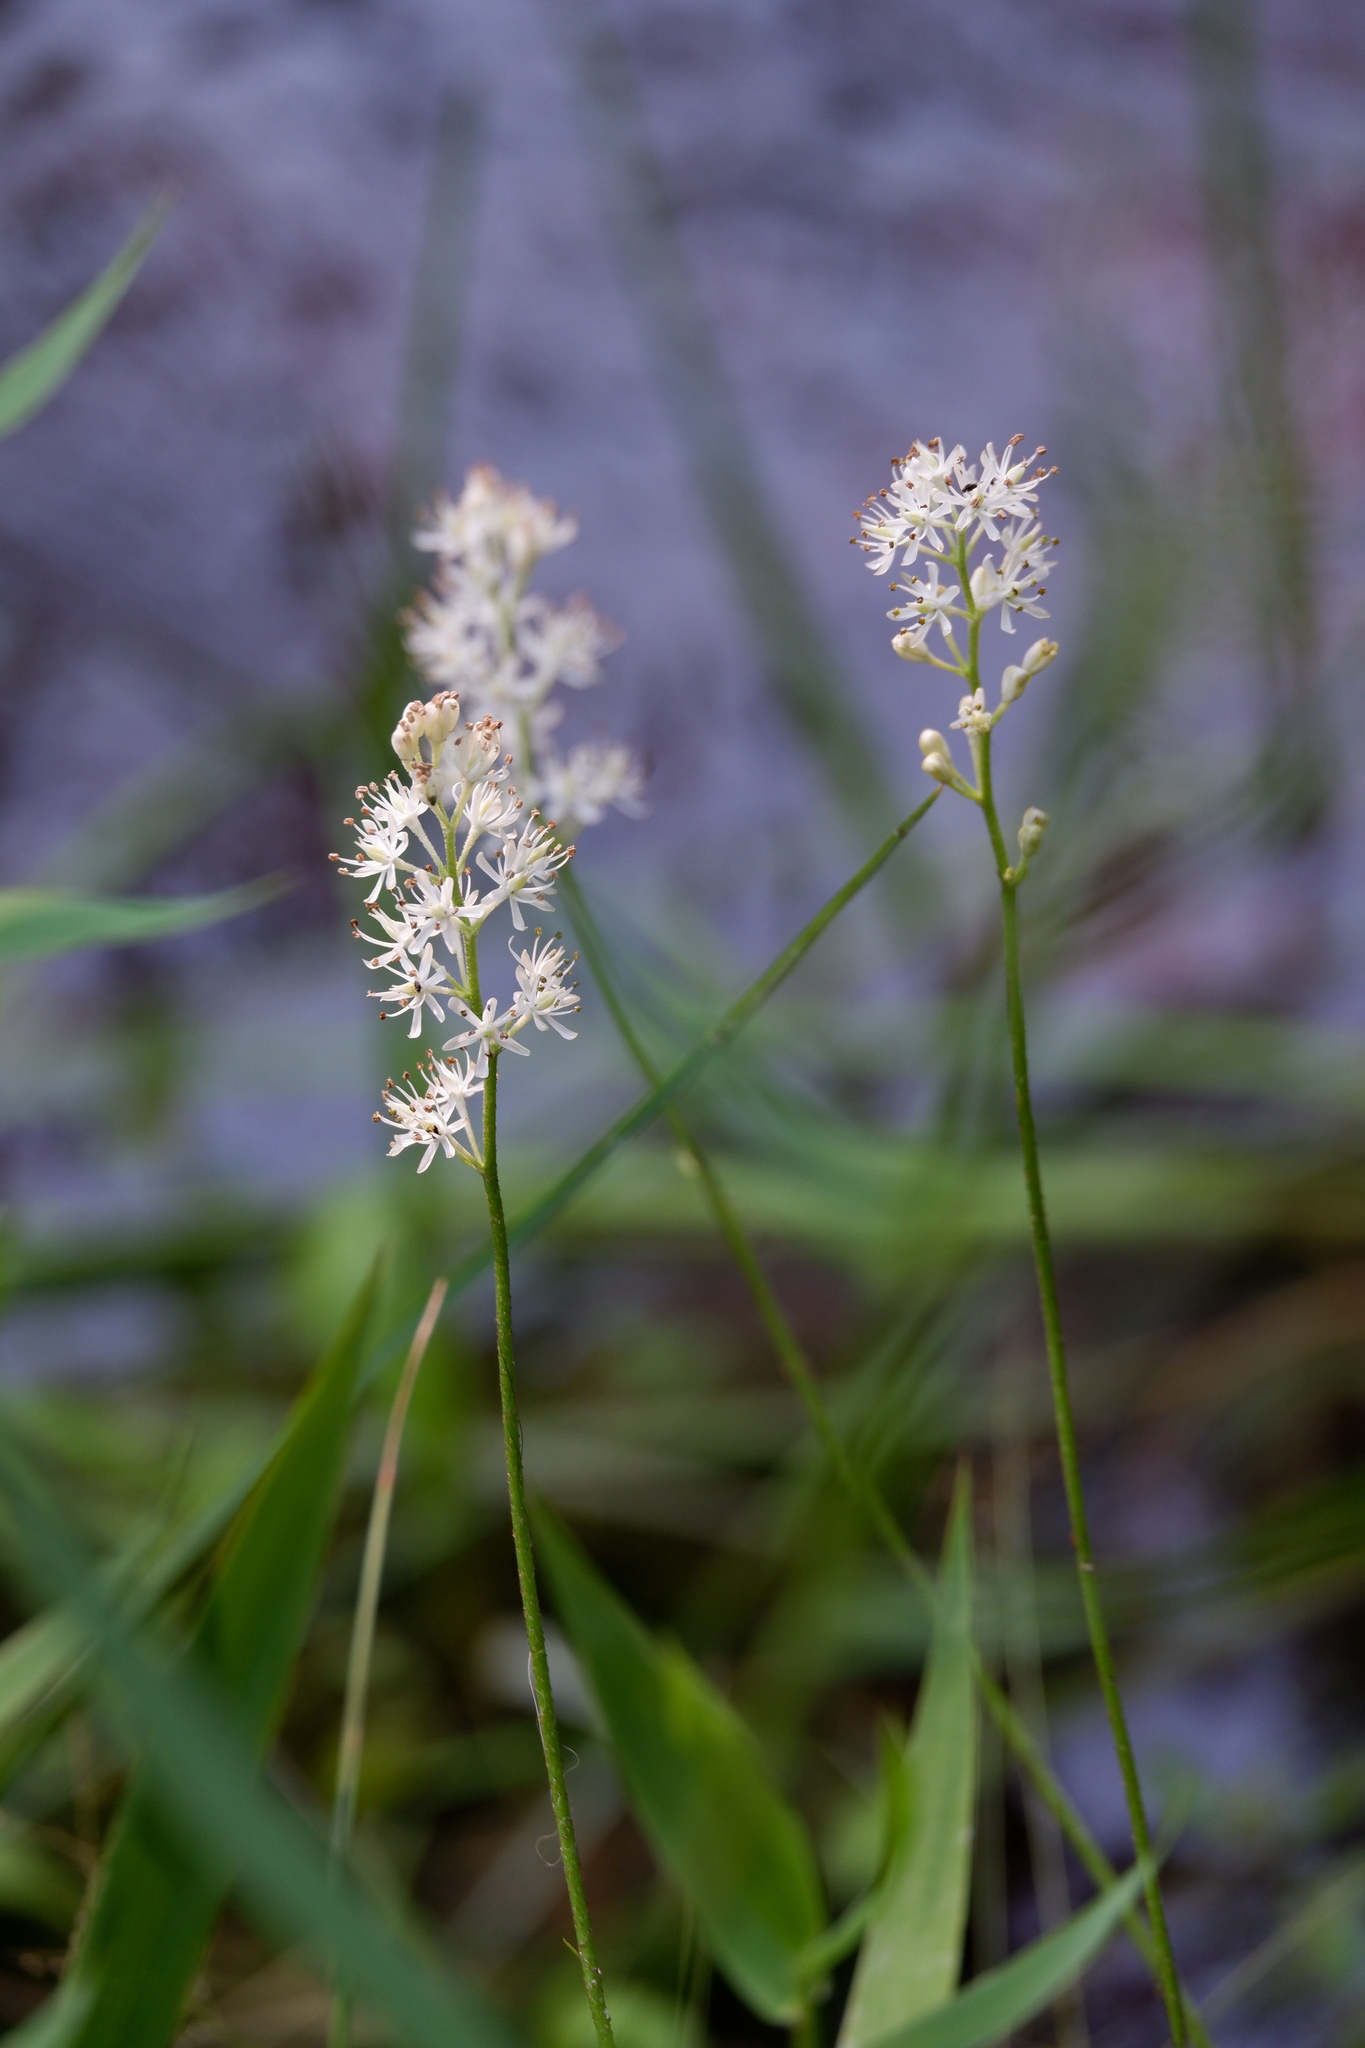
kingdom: Plantae
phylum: Tracheophyta
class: Liliopsida
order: Alismatales
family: Tofieldiaceae
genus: Triantha
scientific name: Triantha racemosa
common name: Coastal false asphodel
